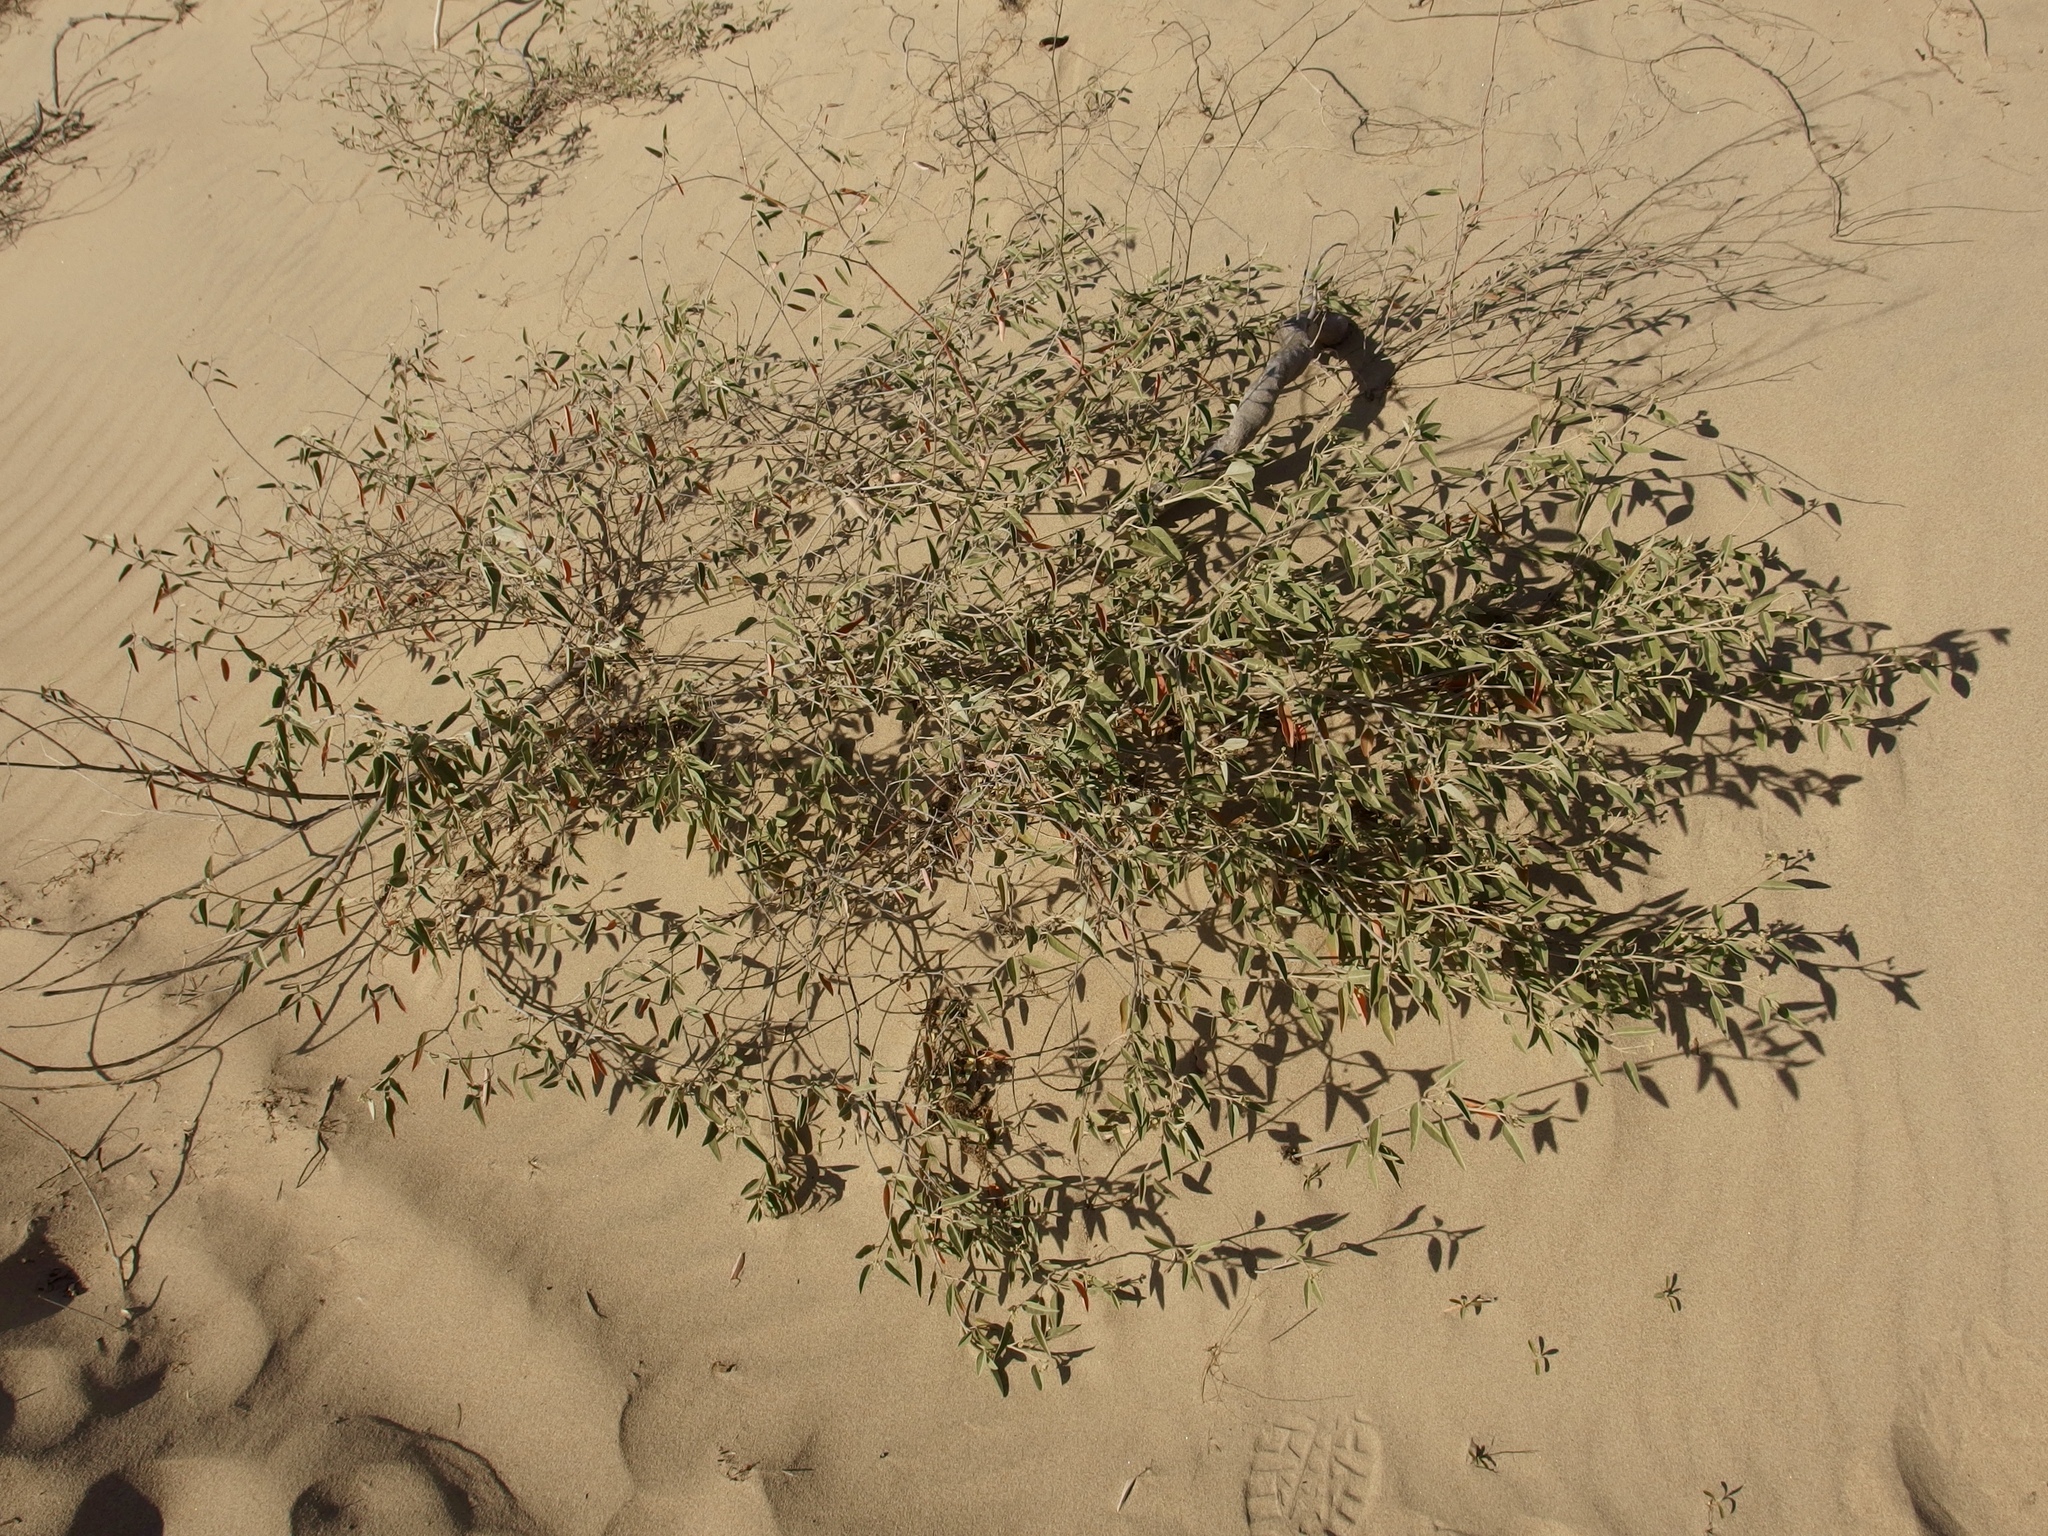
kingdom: Plantae
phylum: Tracheophyta
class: Magnoliopsida
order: Malpighiales
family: Euphorbiaceae
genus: Croton
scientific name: Croton californicus
